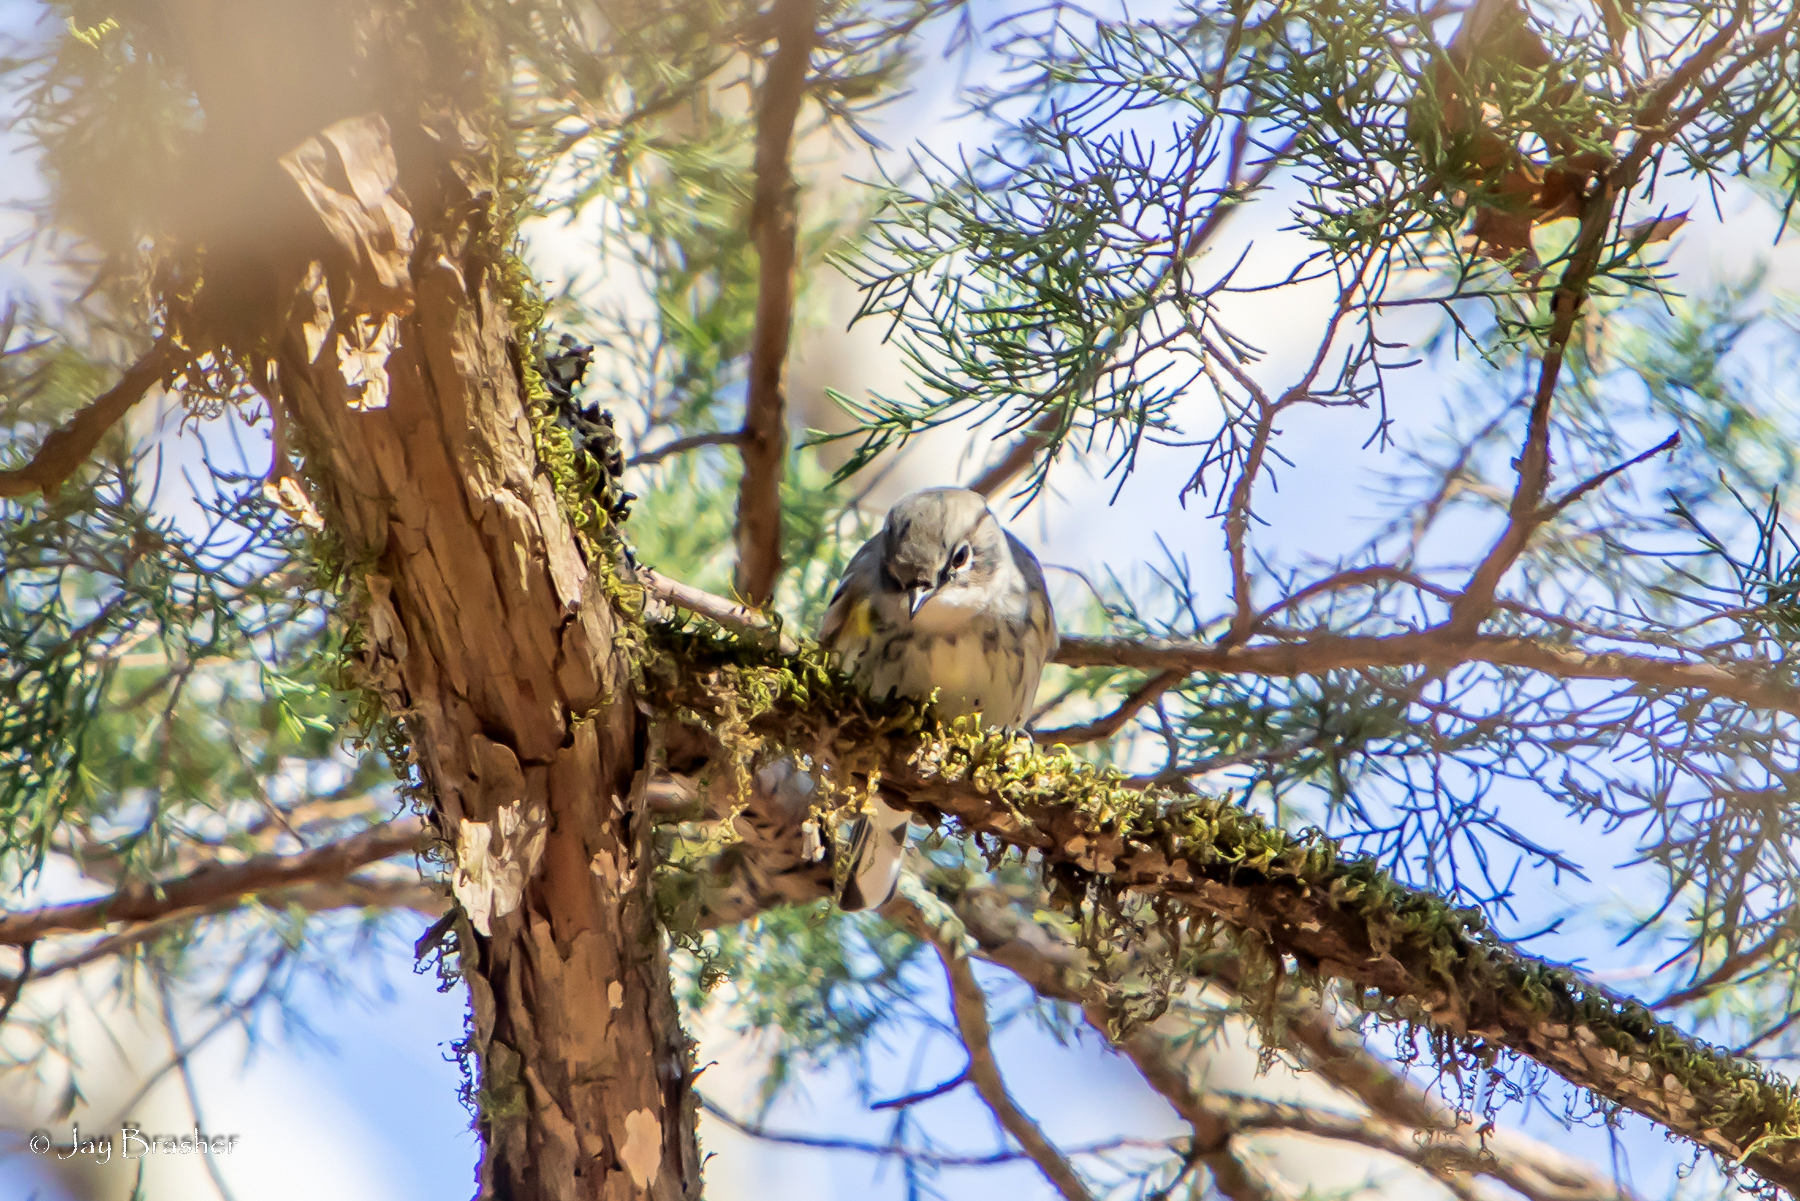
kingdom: Animalia
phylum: Chordata
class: Aves
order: Passeriformes
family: Parulidae
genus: Setophaga
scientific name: Setophaga coronata
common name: Myrtle warbler
